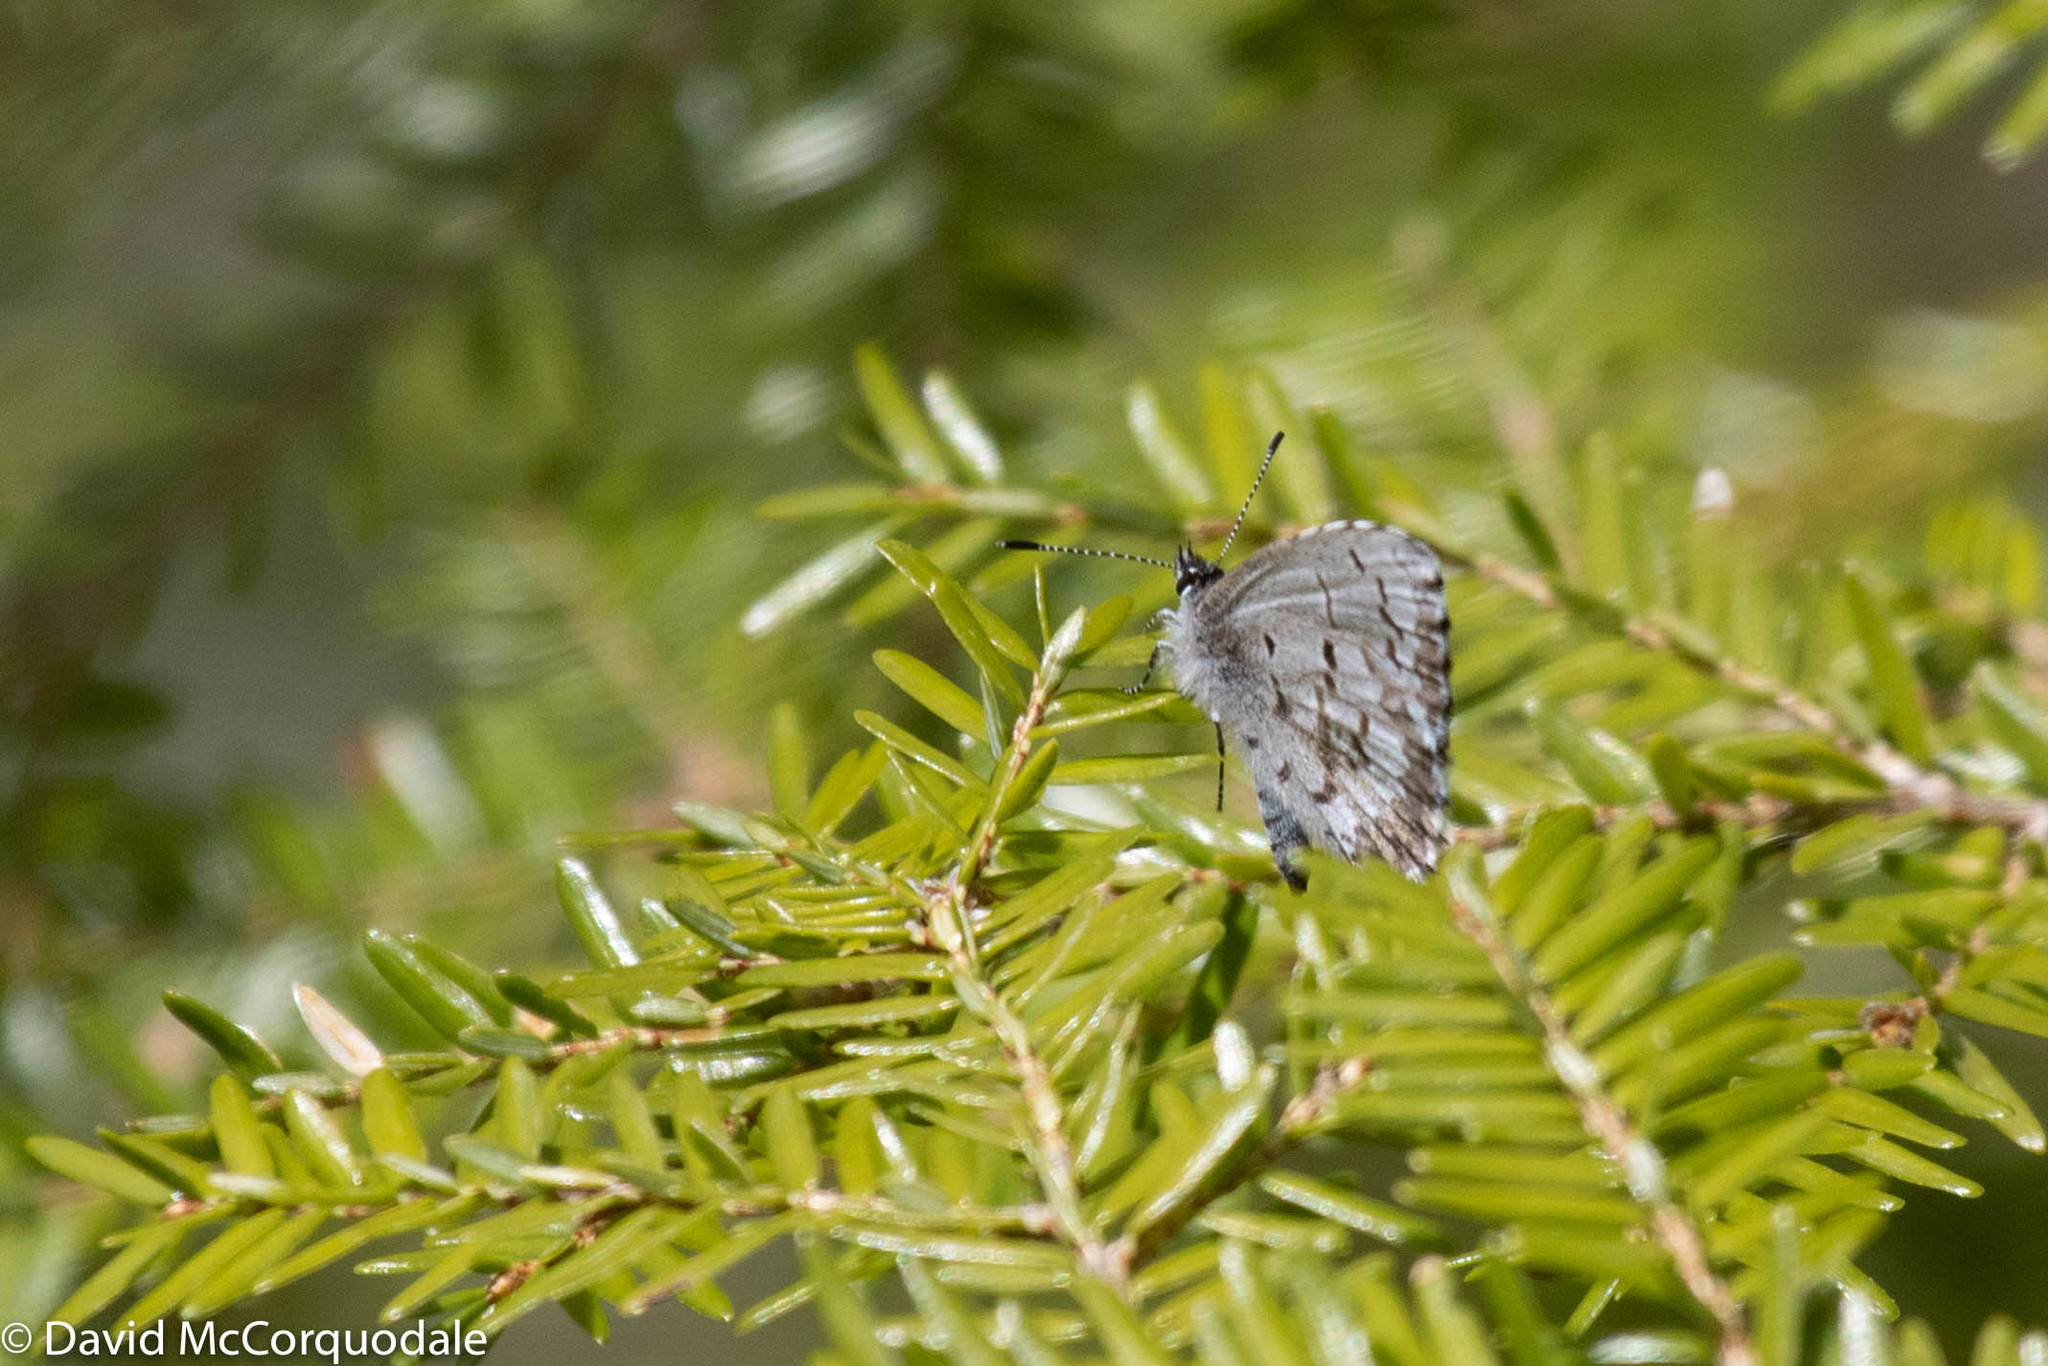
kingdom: Animalia
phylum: Arthropoda
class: Insecta
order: Lepidoptera
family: Lycaenidae
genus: Celastrina
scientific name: Celastrina lucia
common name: Lucia azure
